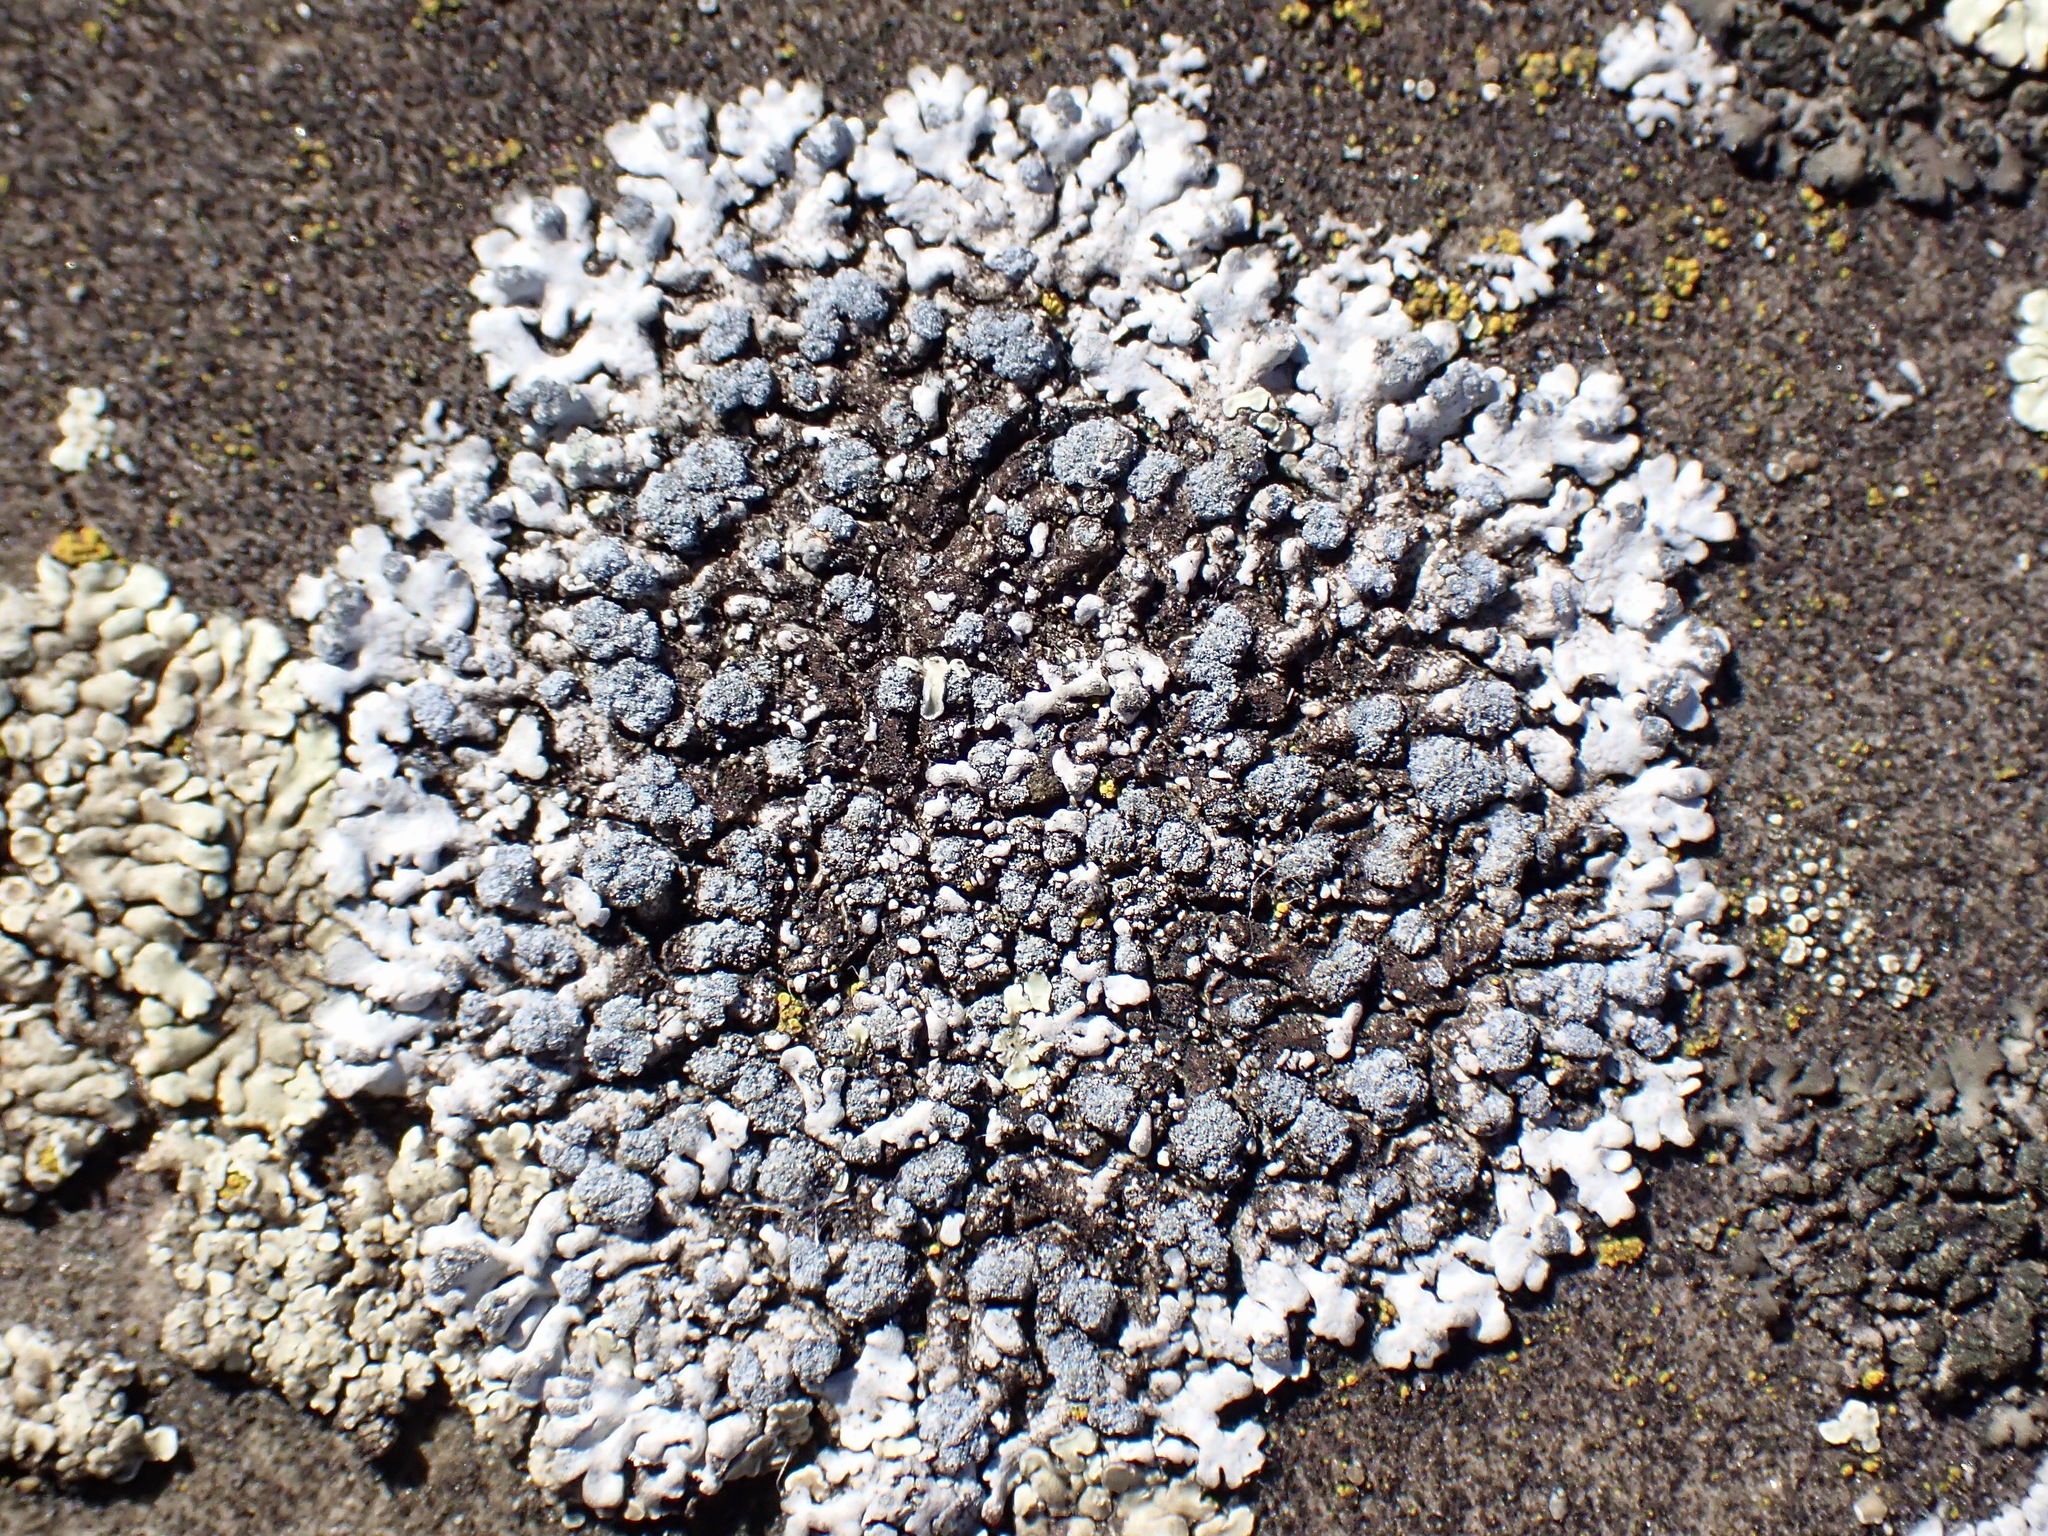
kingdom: Fungi
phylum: Ascomycota
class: Lecanoromycetes
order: Caliciales
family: Physciaceae
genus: Physcia
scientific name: Physcia caesia
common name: Blue-gray rosette lichen
